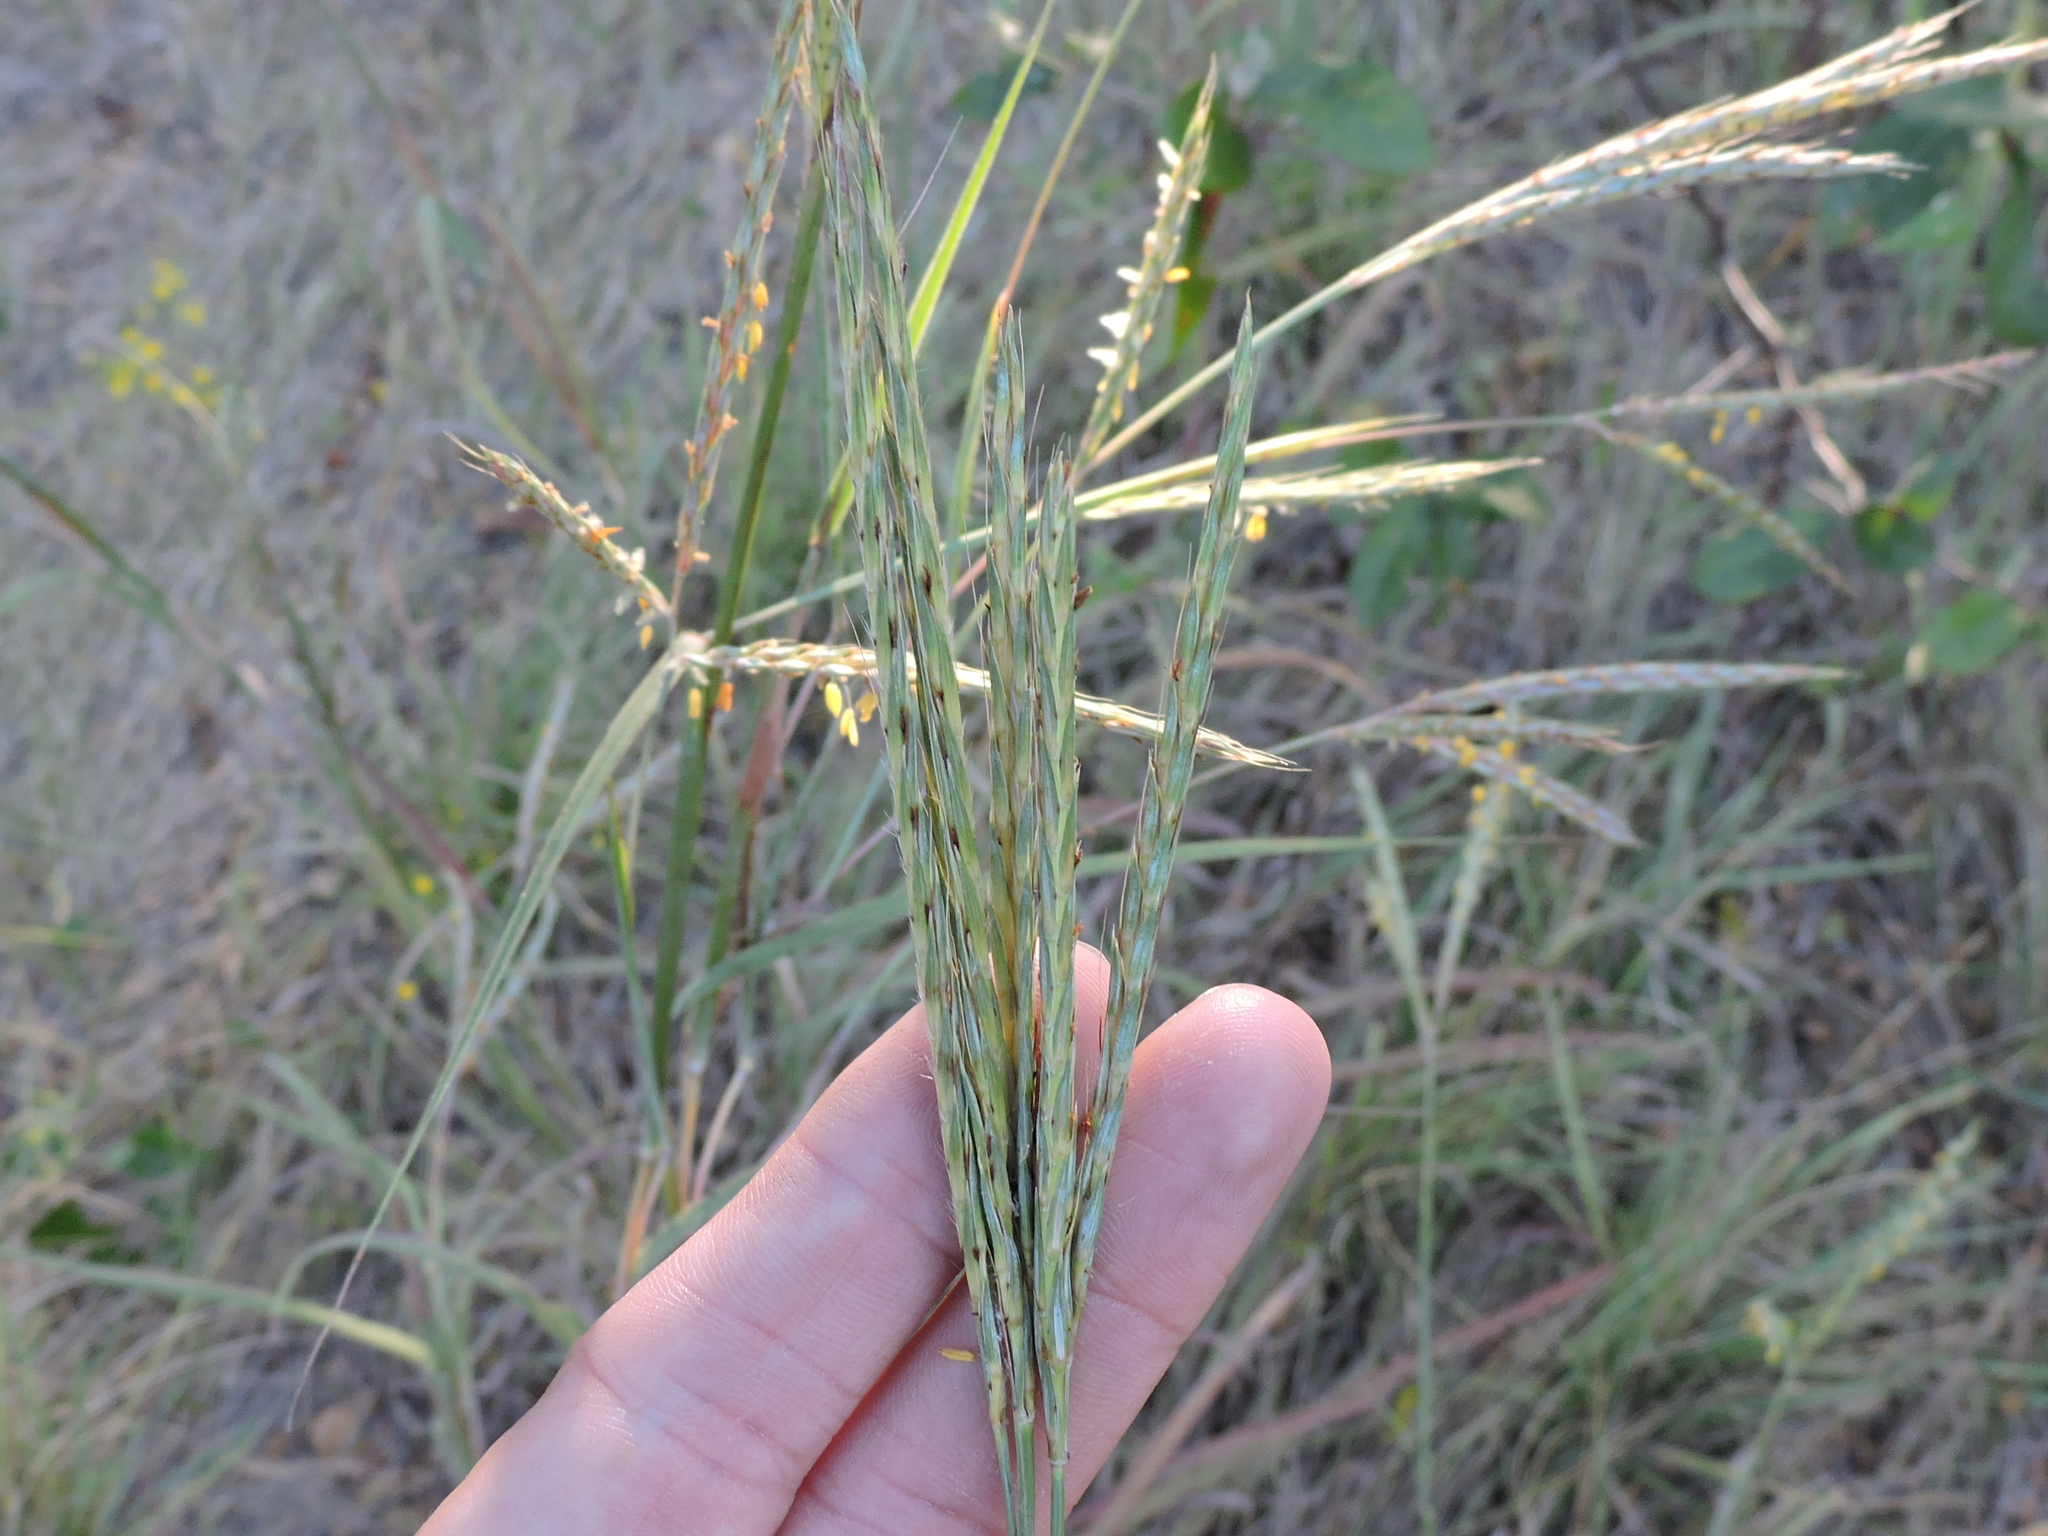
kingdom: Plantae
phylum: Tracheophyta
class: Liliopsida
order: Poales
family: Poaceae
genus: Andropogon
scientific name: Andropogon gerardi
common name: Big bluestem
